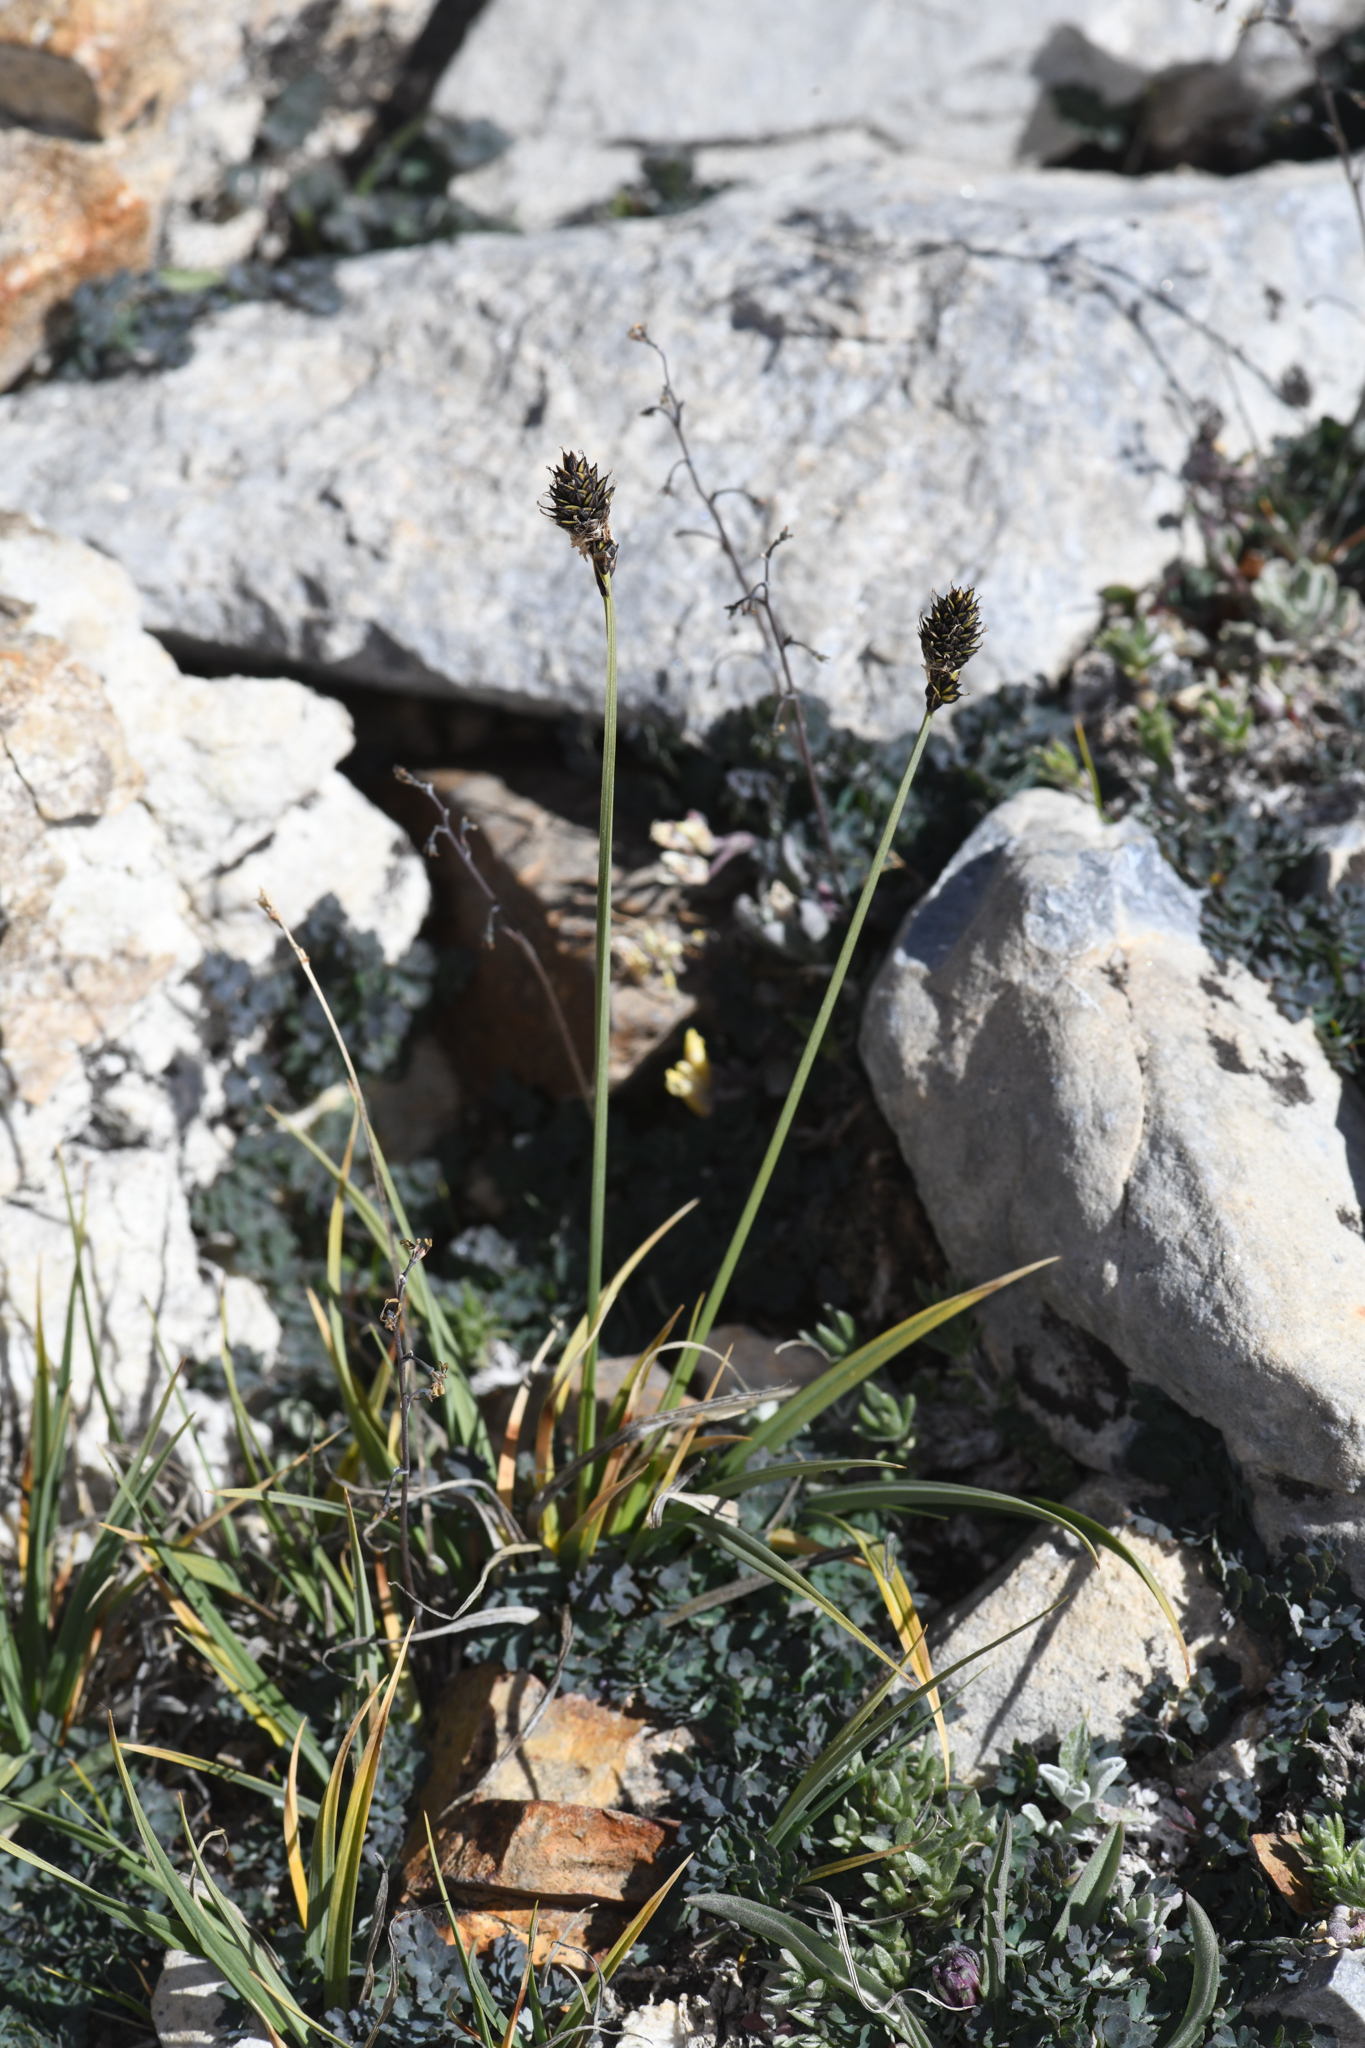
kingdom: Plantae
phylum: Tracheophyta
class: Liliopsida
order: Poales
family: Cyperaceae
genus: Carex
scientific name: Carex orestera
